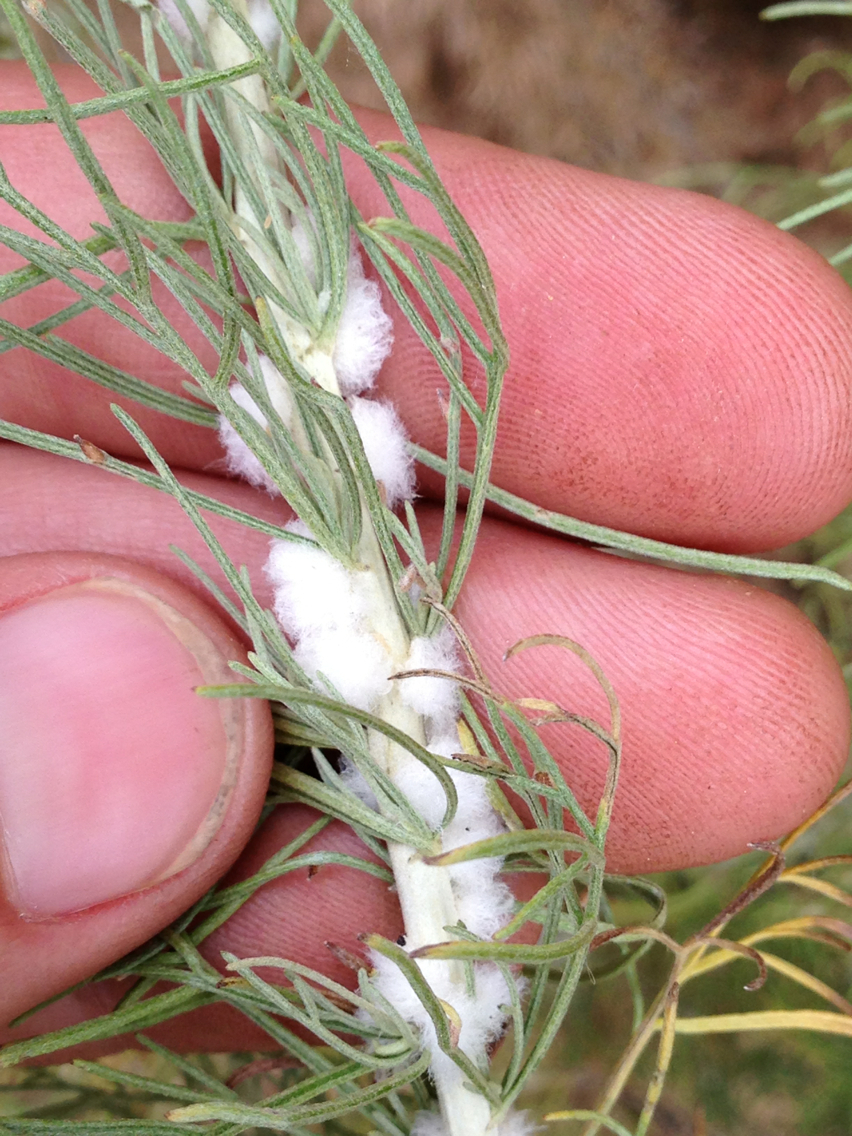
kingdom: Animalia
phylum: Arthropoda
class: Insecta
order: Diptera
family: Cecidomyiidae
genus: Rhopalomyia
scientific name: Rhopalomyia floccosa
